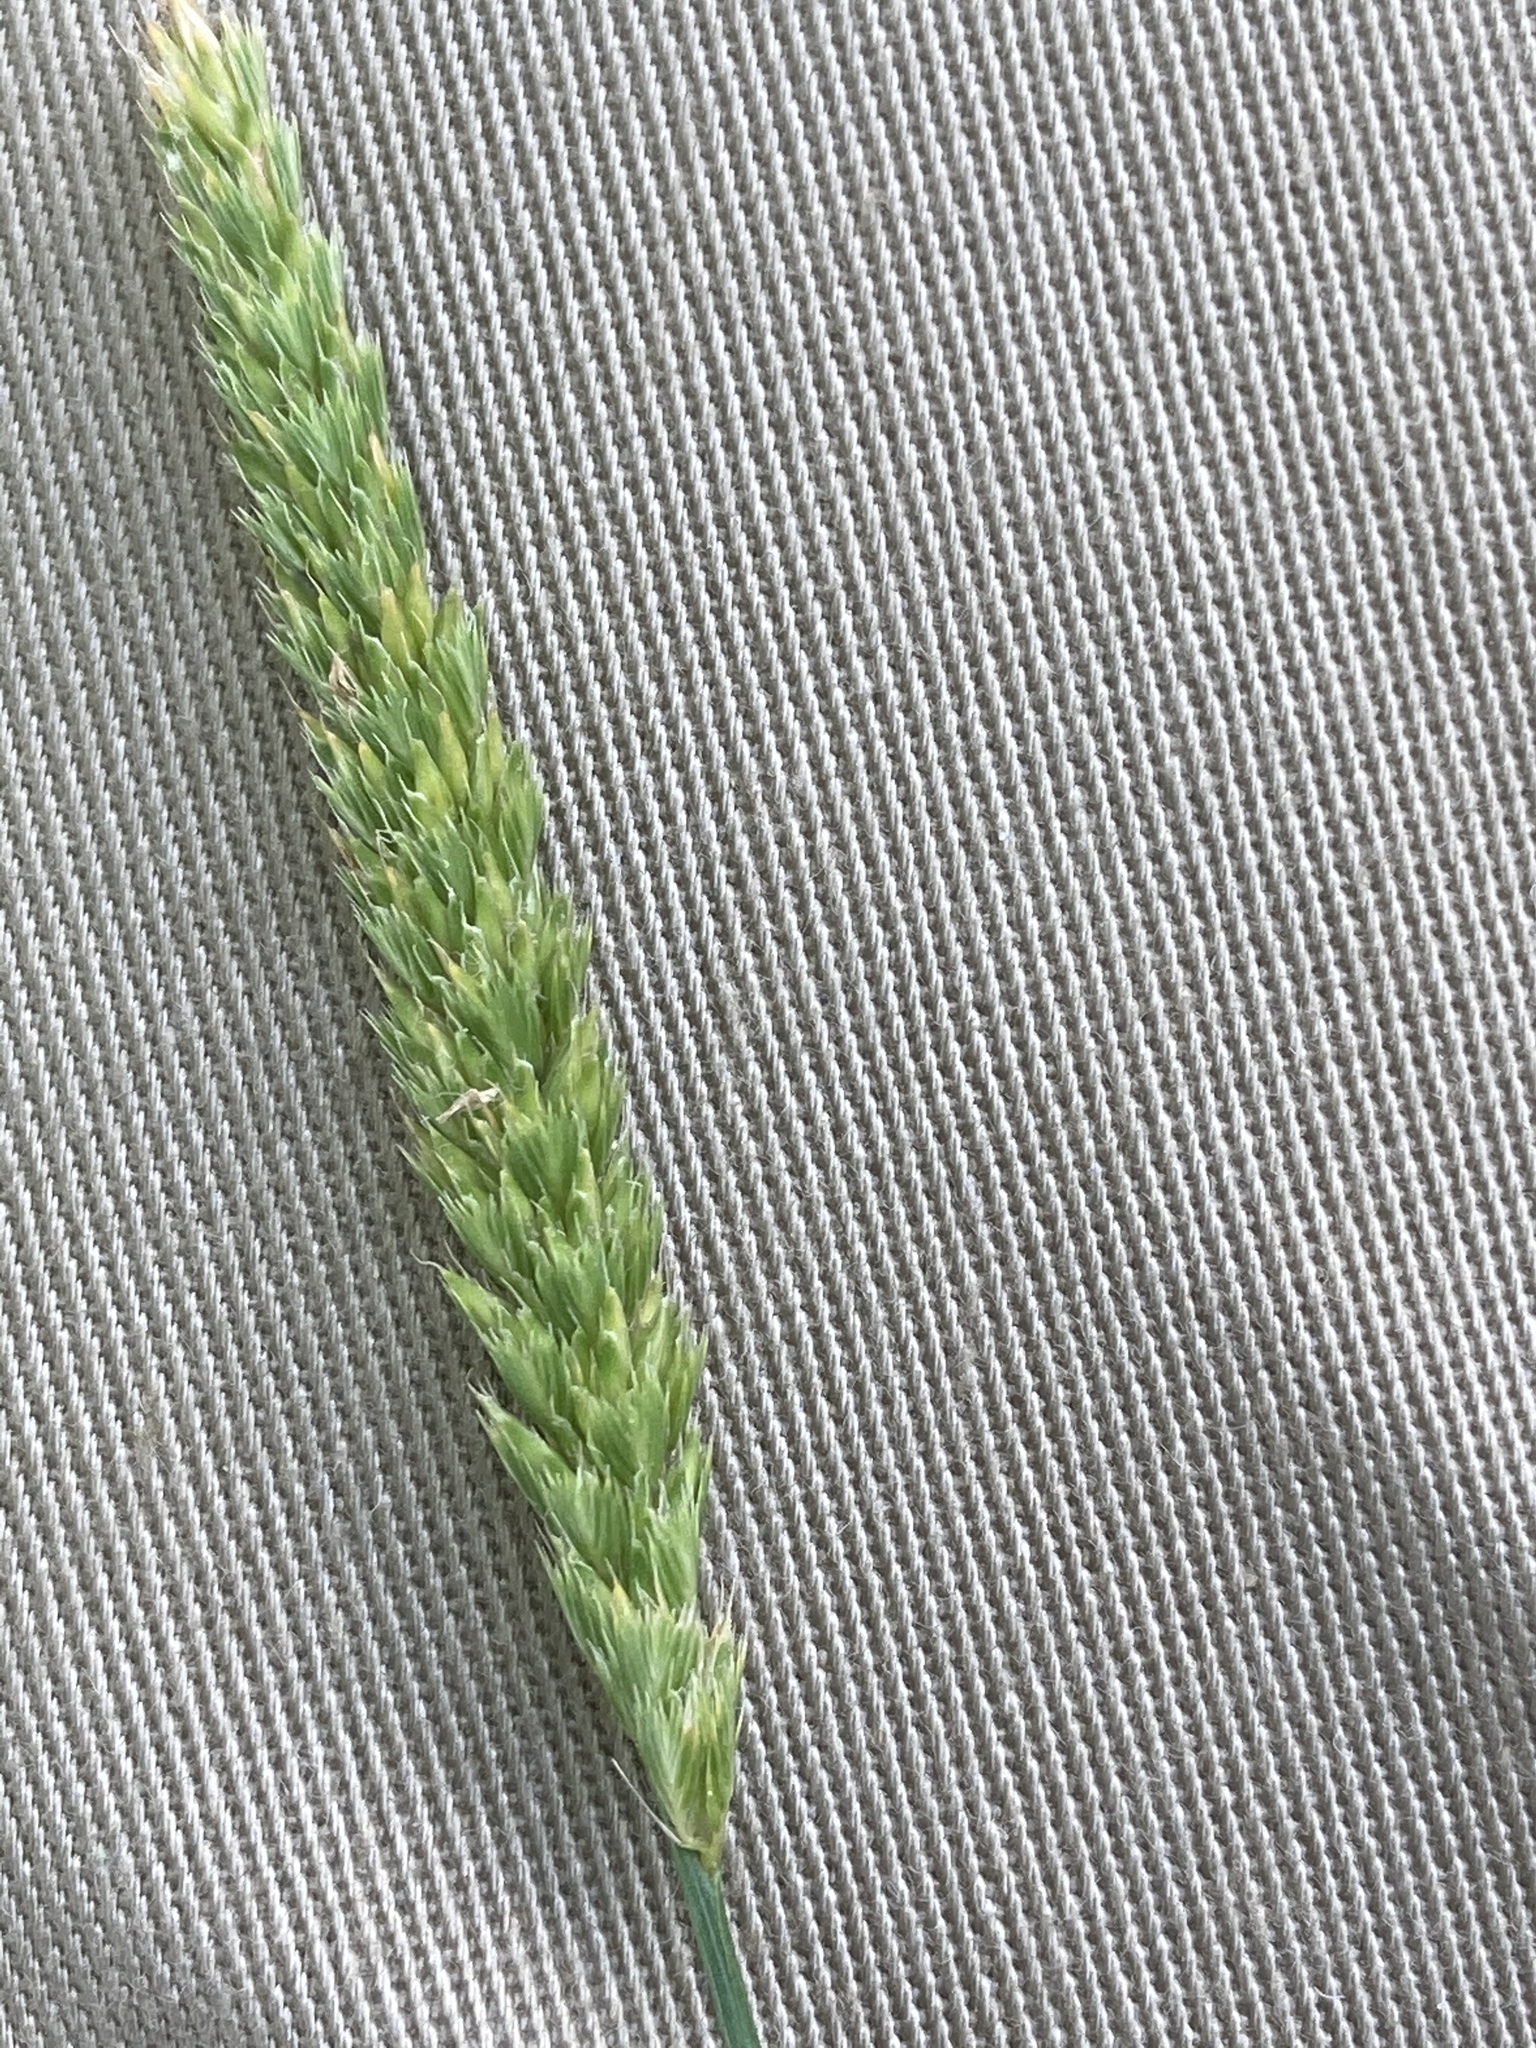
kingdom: Plantae
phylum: Tracheophyta
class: Liliopsida
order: Poales
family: Poaceae
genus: Cynosurus
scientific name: Cynosurus cristatus
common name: Crested dog's-tail
